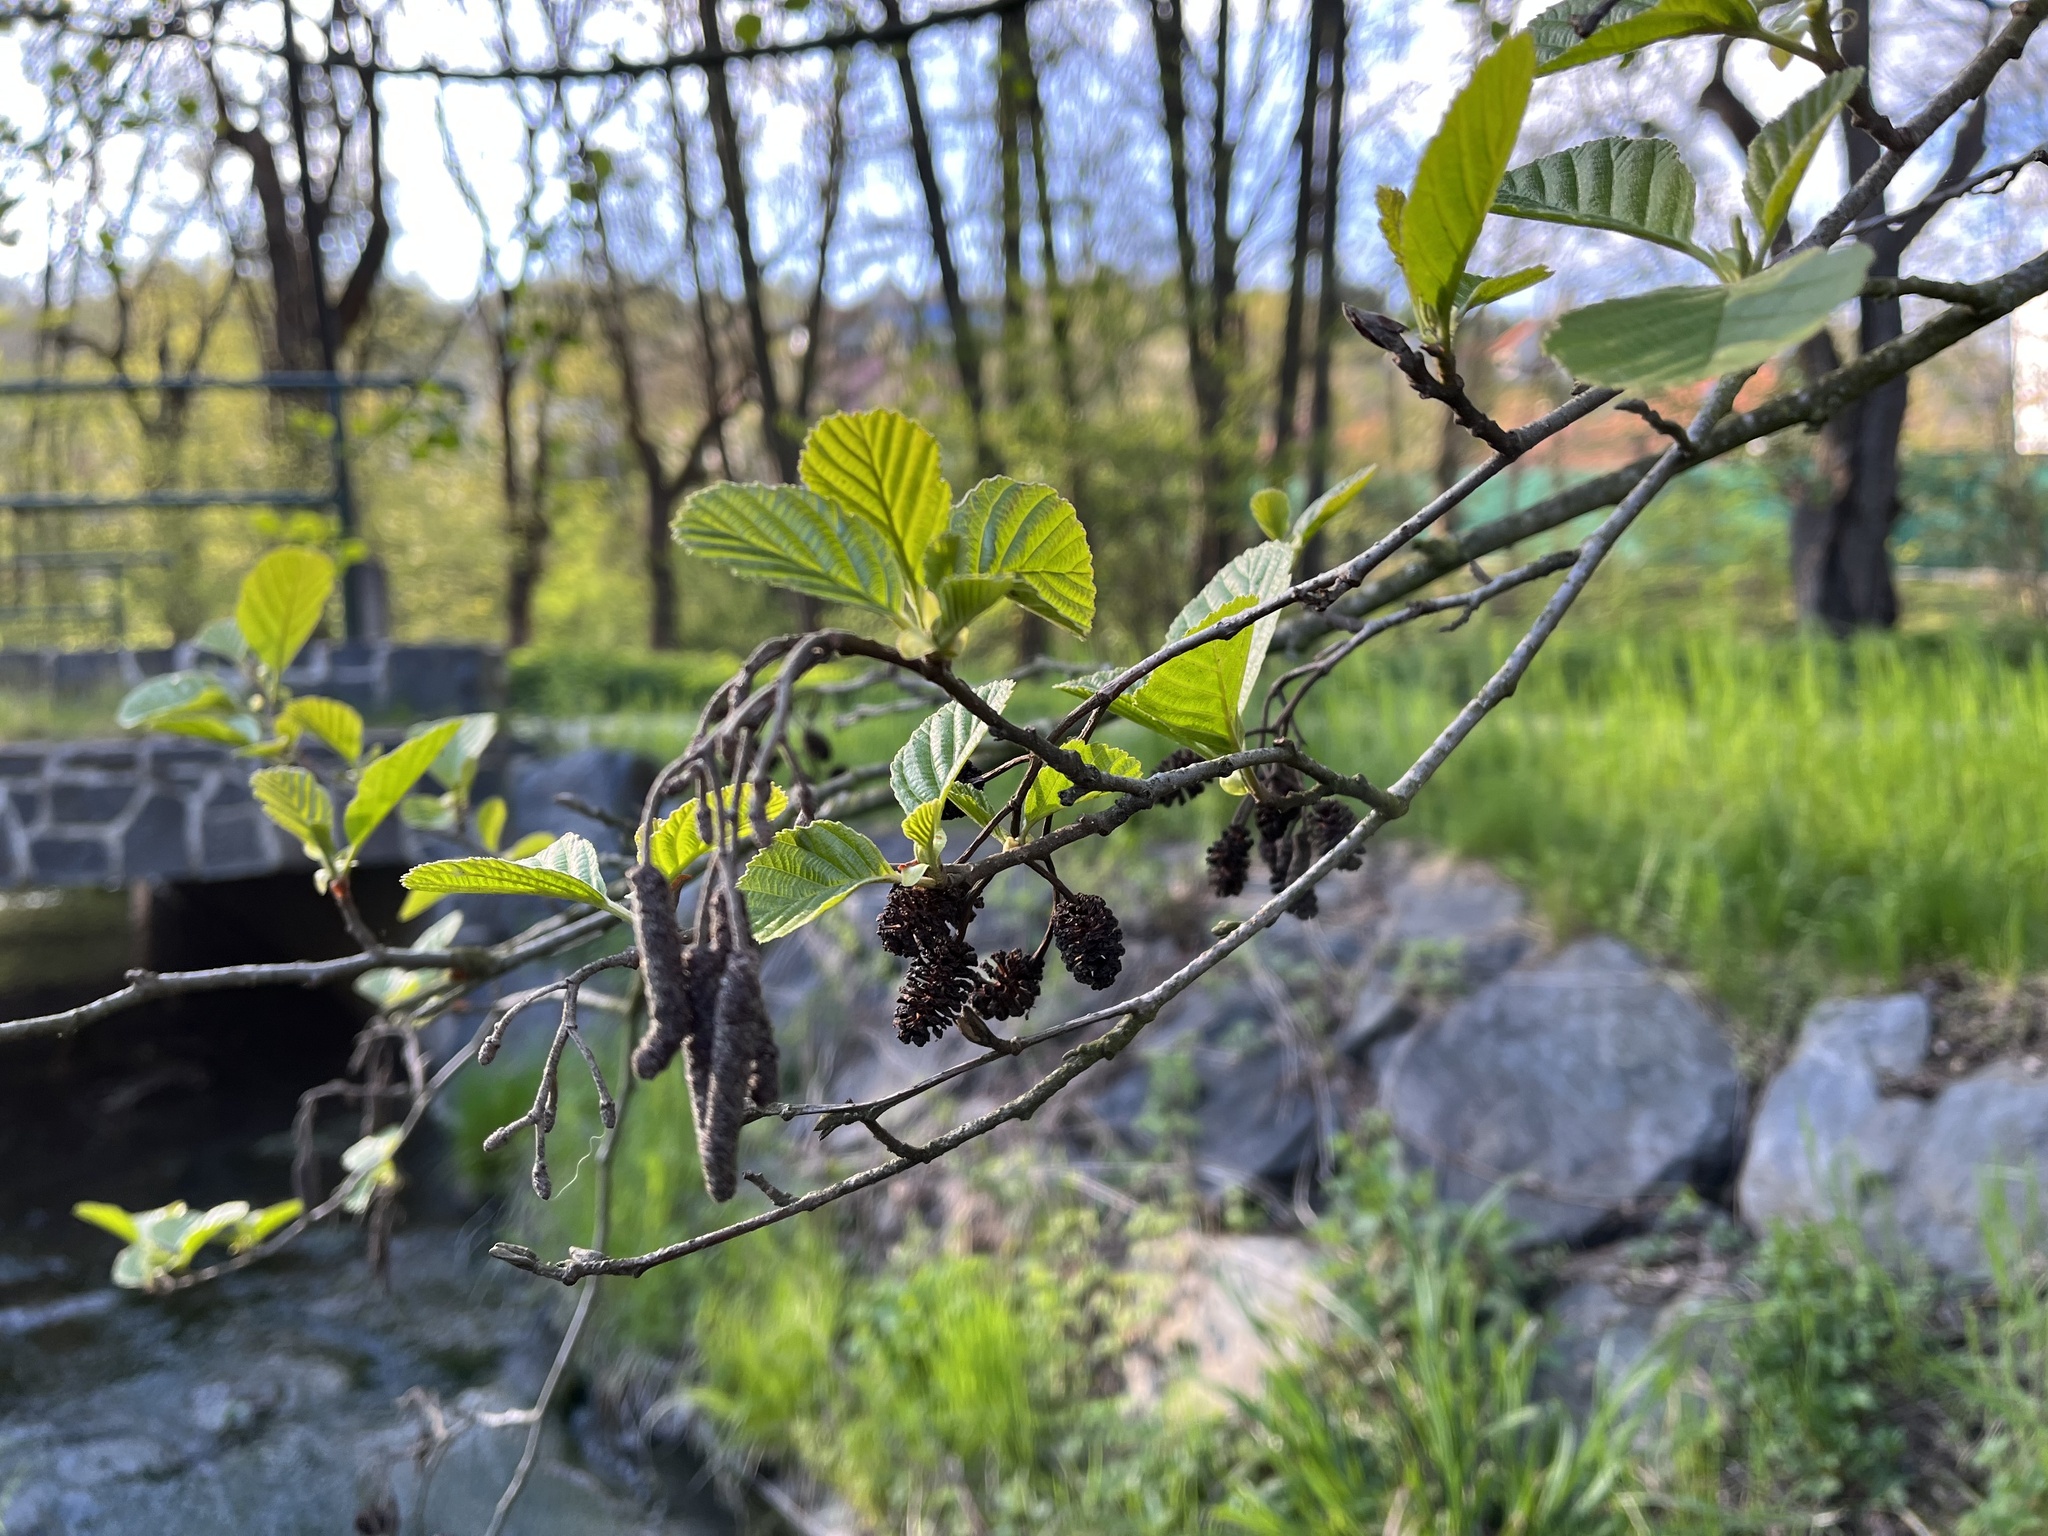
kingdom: Plantae
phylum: Tracheophyta
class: Magnoliopsida
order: Fagales
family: Betulaceae
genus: Alnus
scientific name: Alnus glutinosa
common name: Black alder
